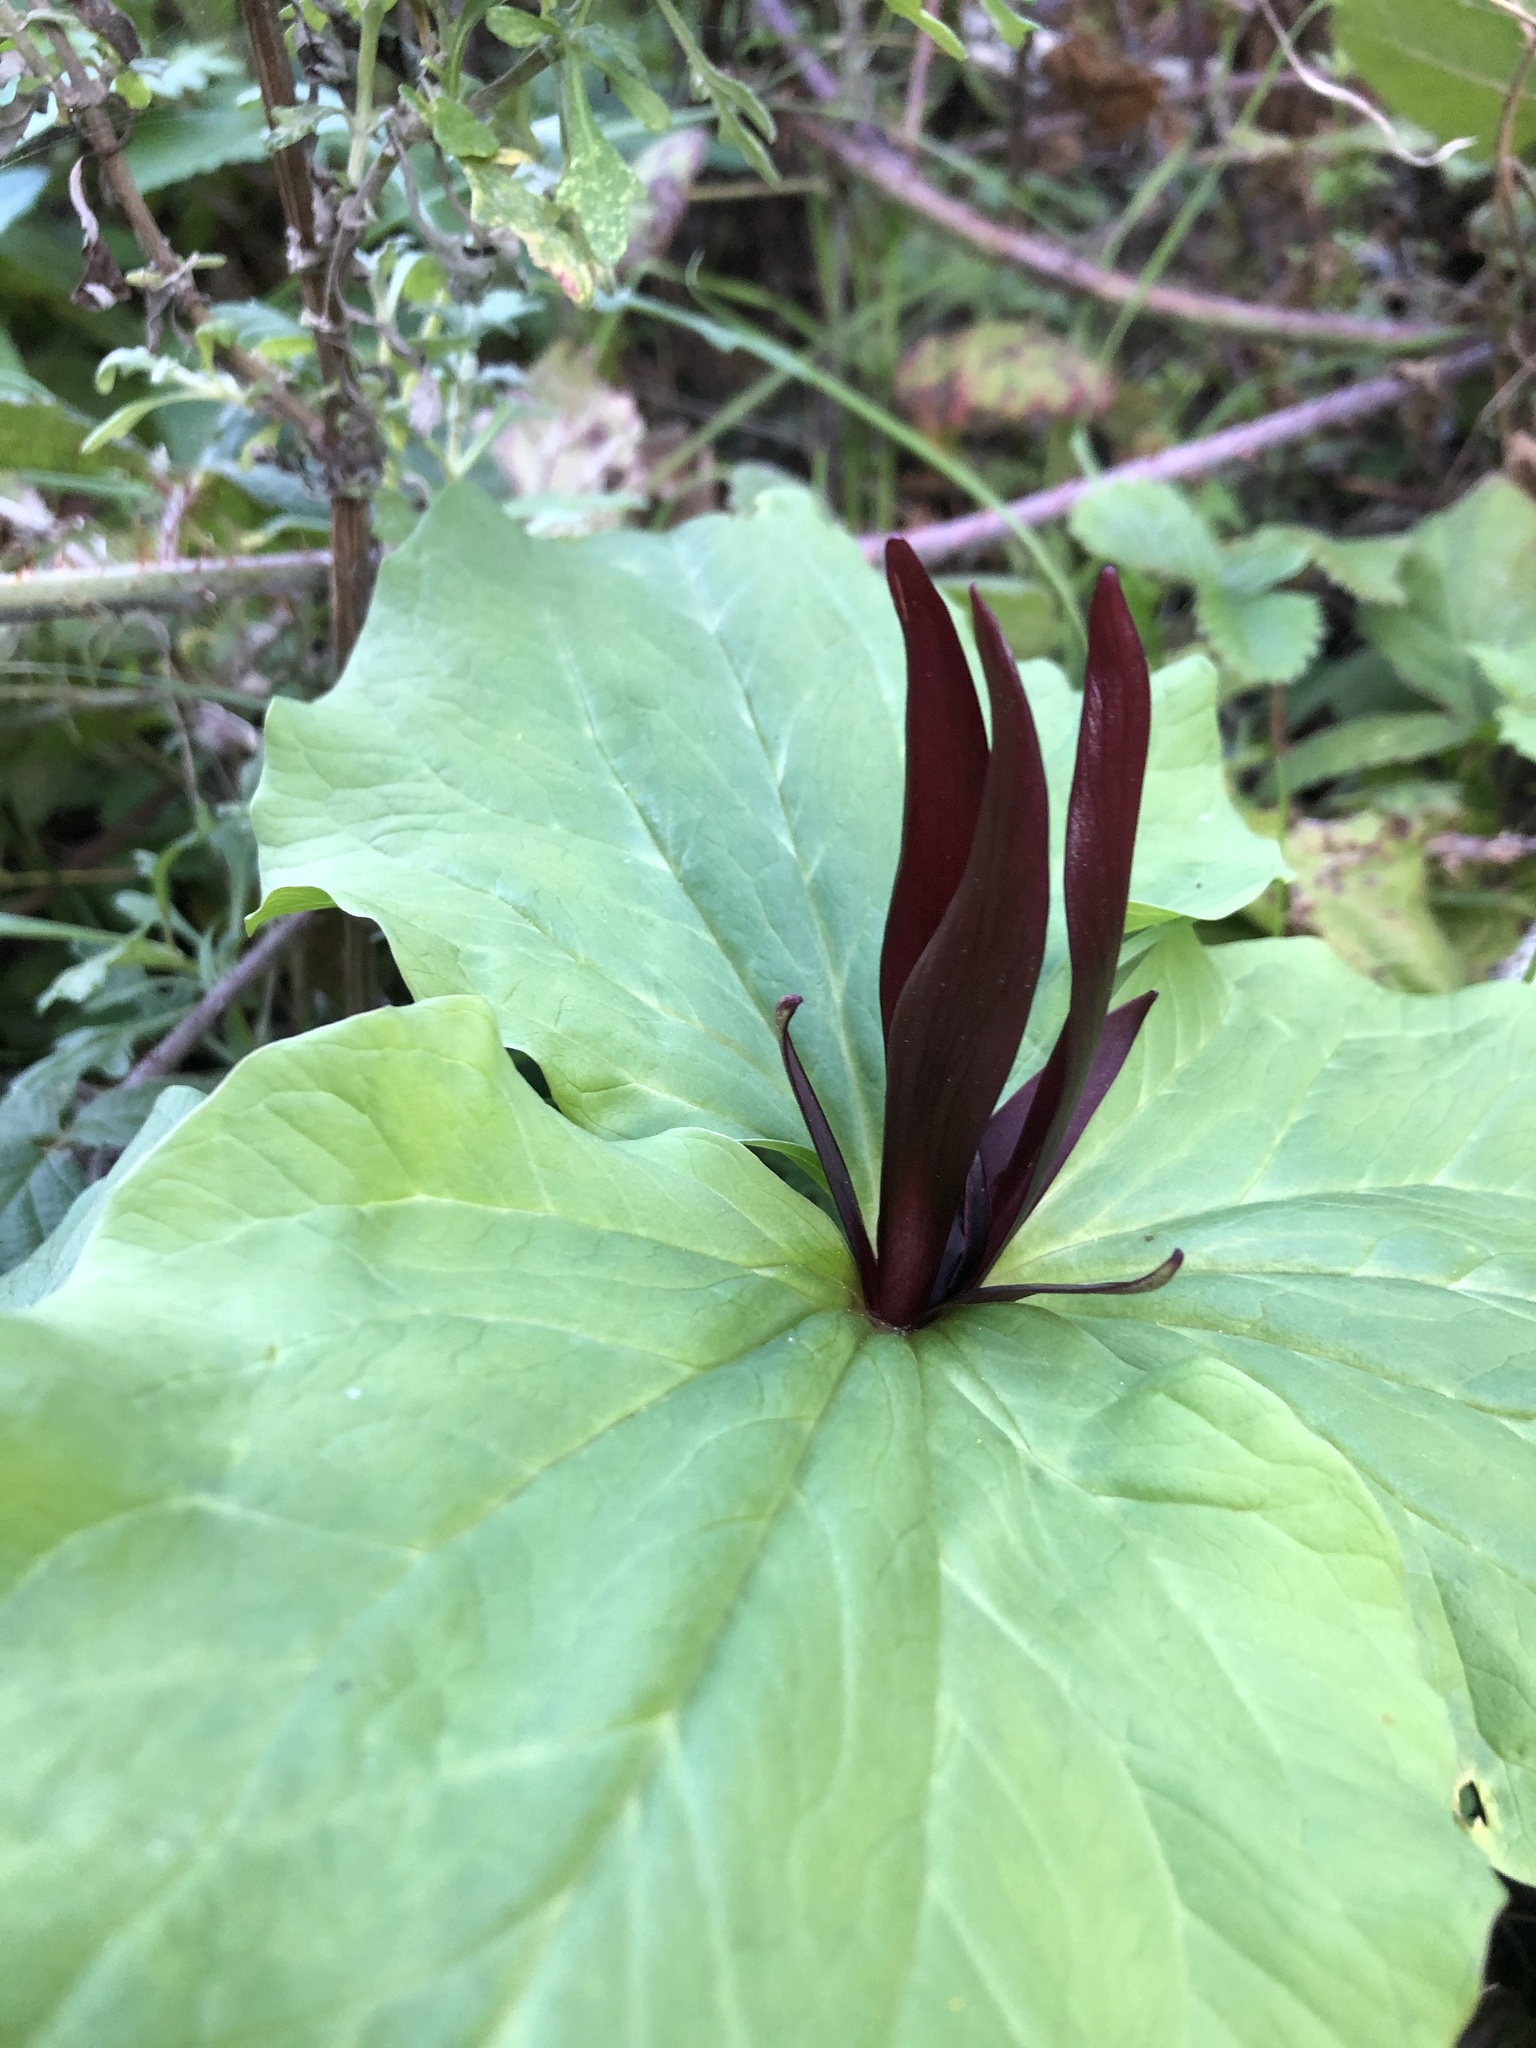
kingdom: Plantae
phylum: Tracheophyta
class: Liliopsida
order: Liliales
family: Melanthiaceae
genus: Trillium
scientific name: Trillium angustipetalum
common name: Narrow-petaled trillium
